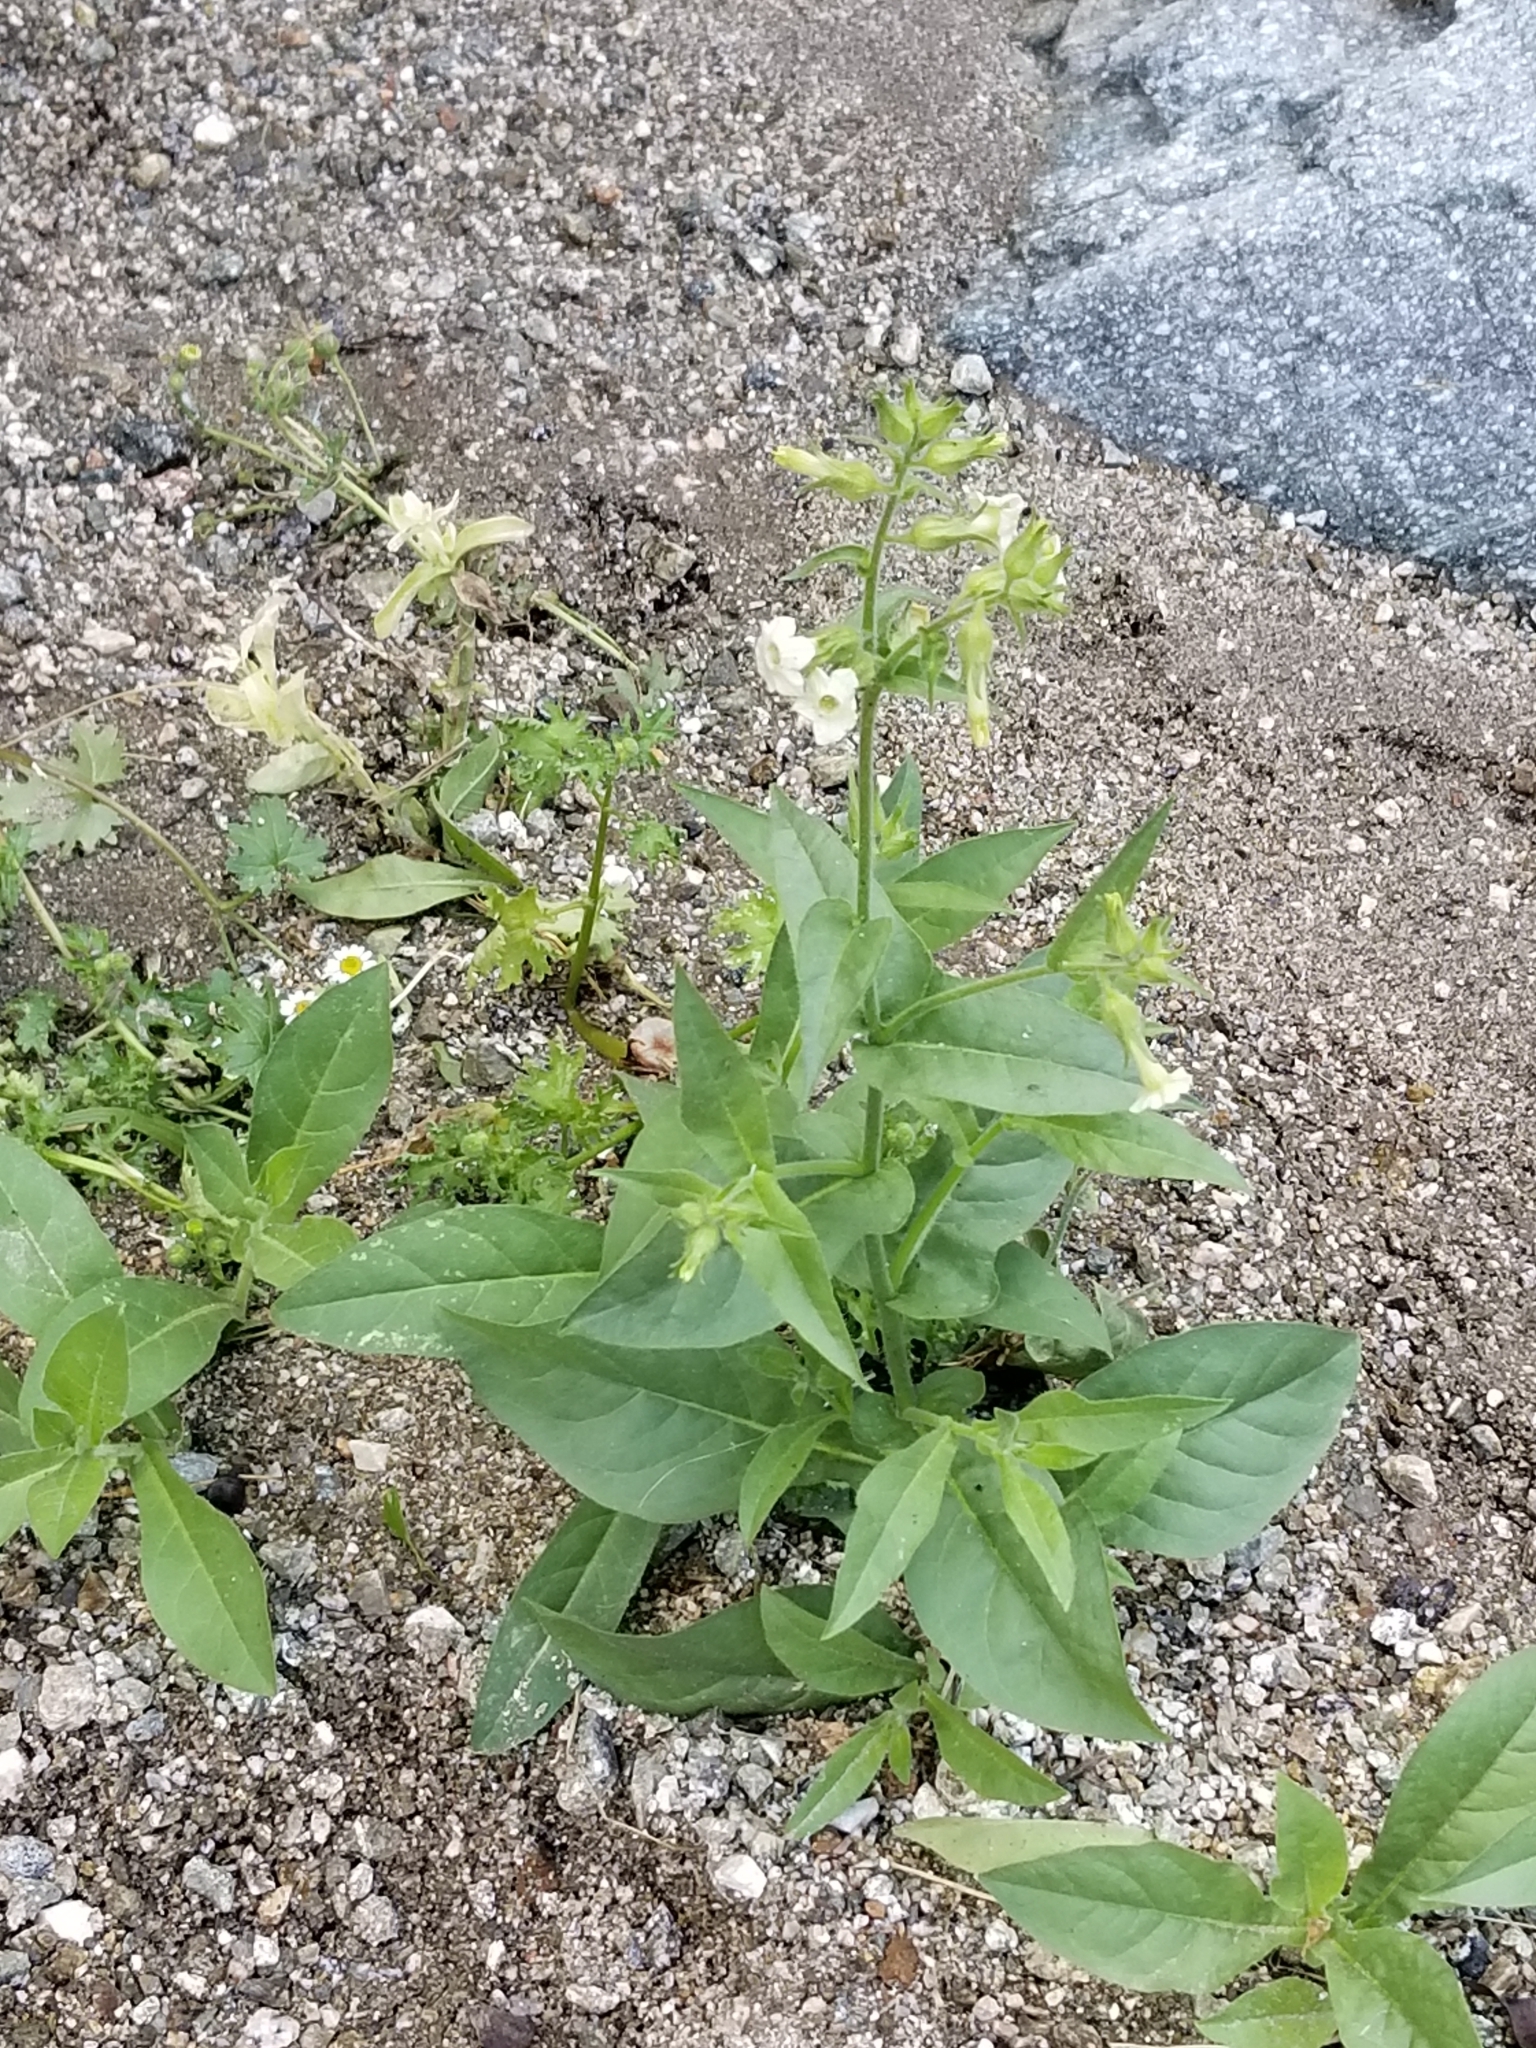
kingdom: Plantae
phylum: Tracheophyta
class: Magnoliopsida
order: Solanales
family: Solanaceae
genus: Nicotiana
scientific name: Nicotiana obtusifolia
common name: Desert tobacco
